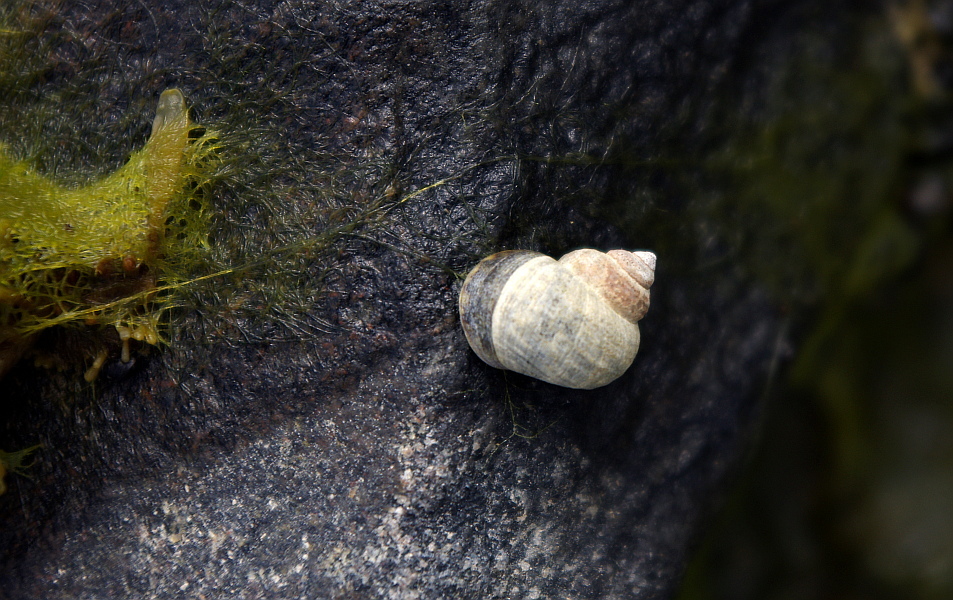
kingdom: Animalia
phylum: Mollusca
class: Gastropoda
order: Littorinimorpha
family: Littorinidae
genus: Littorina
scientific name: Littorina saxatilis
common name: Black-lined periwinkle
